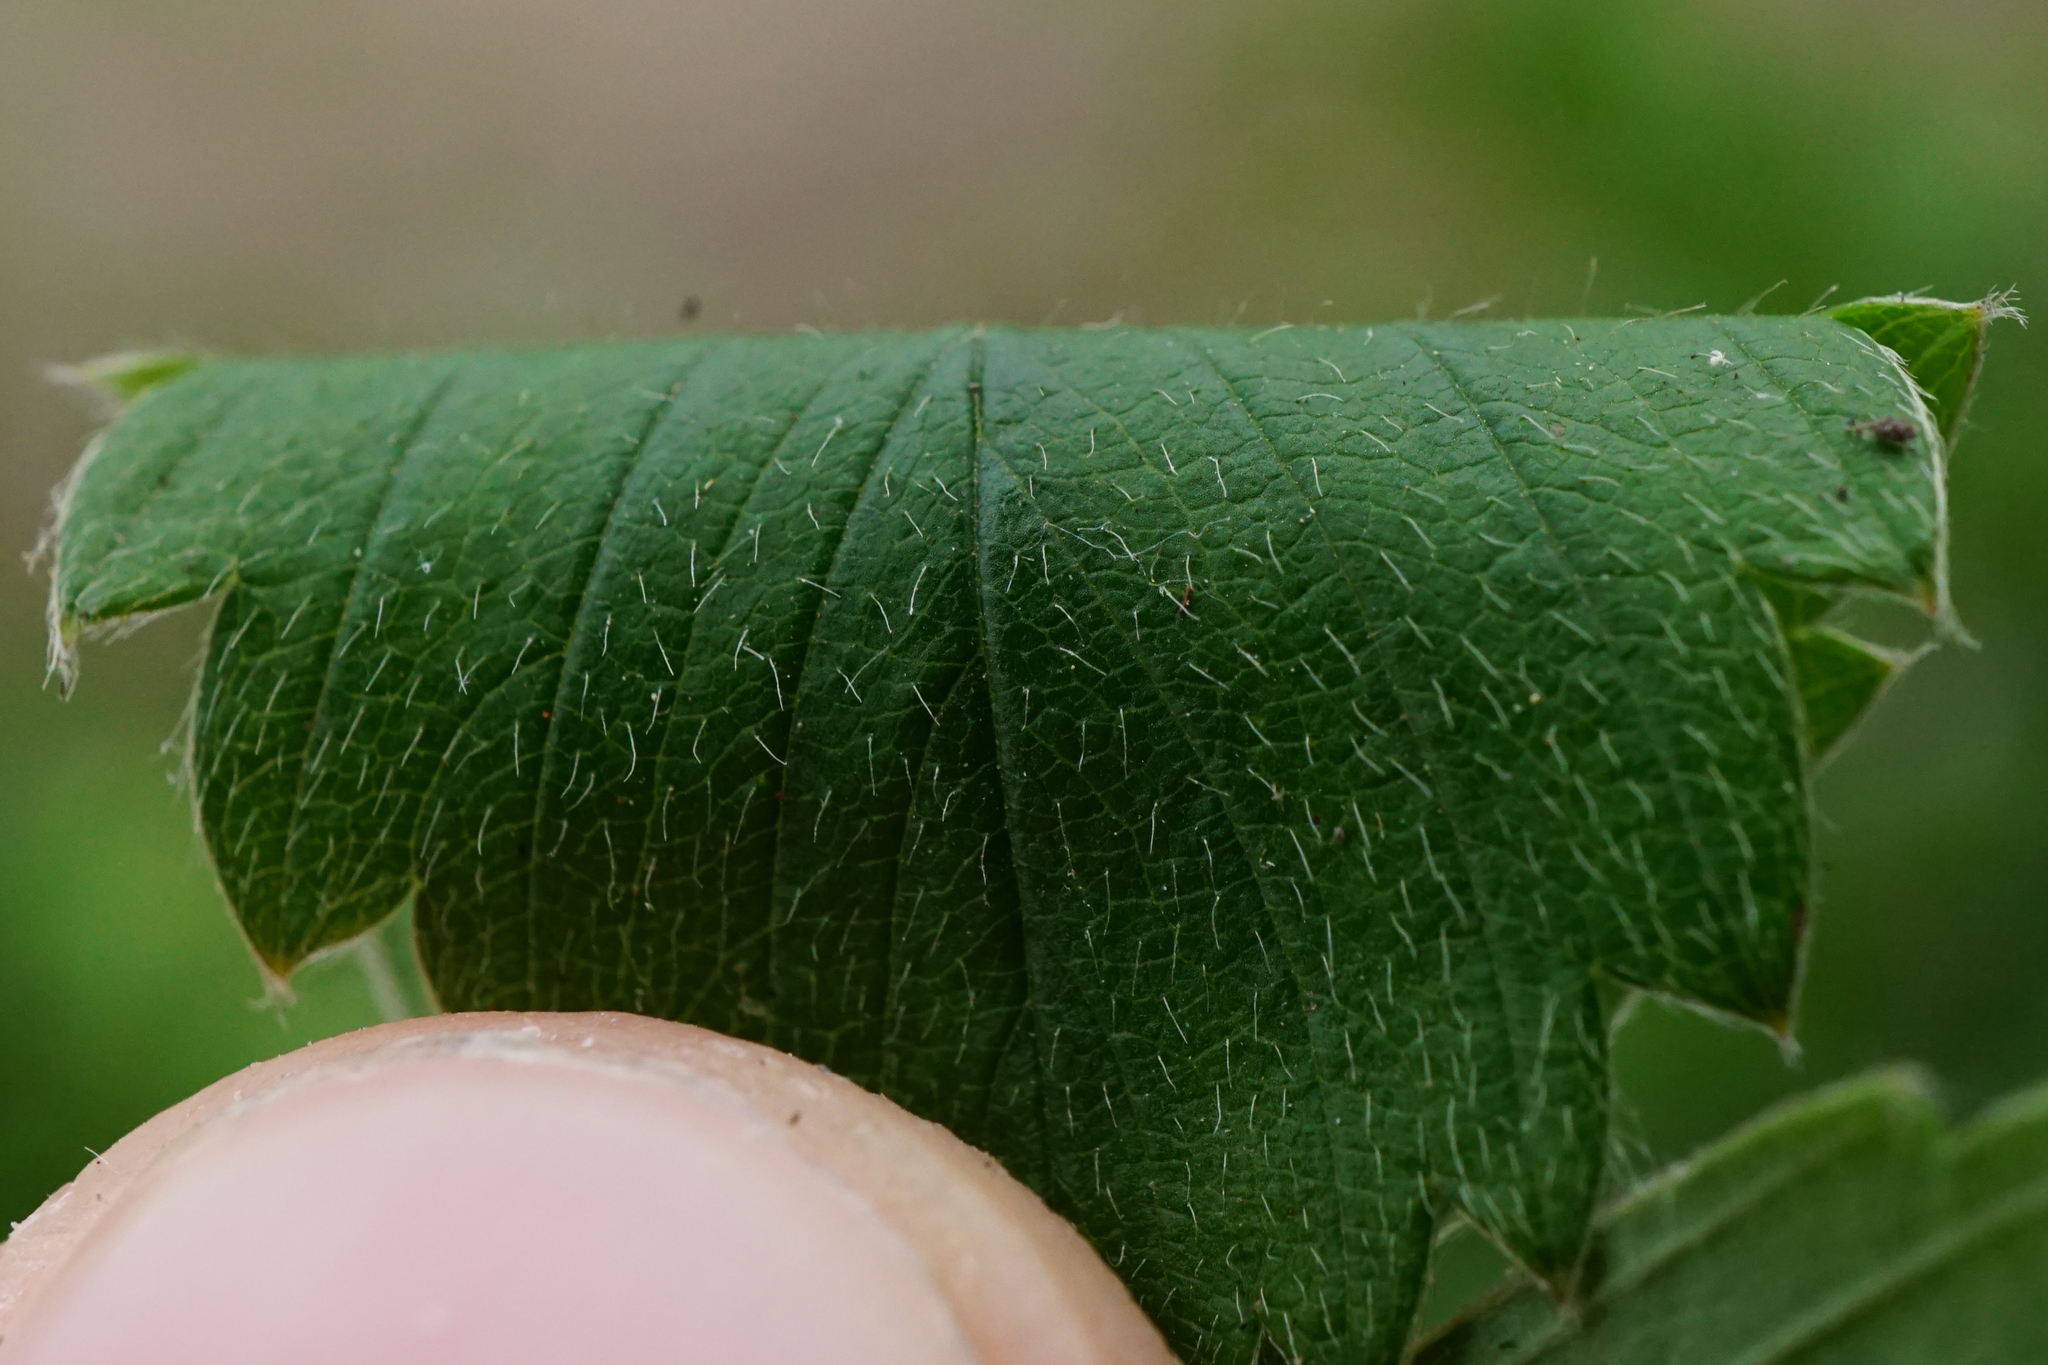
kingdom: Plantae
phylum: Tracheophyta
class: Magnoliopsida
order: Rosales
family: Rosaceae
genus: Fragaria
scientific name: Fragaria viridis
